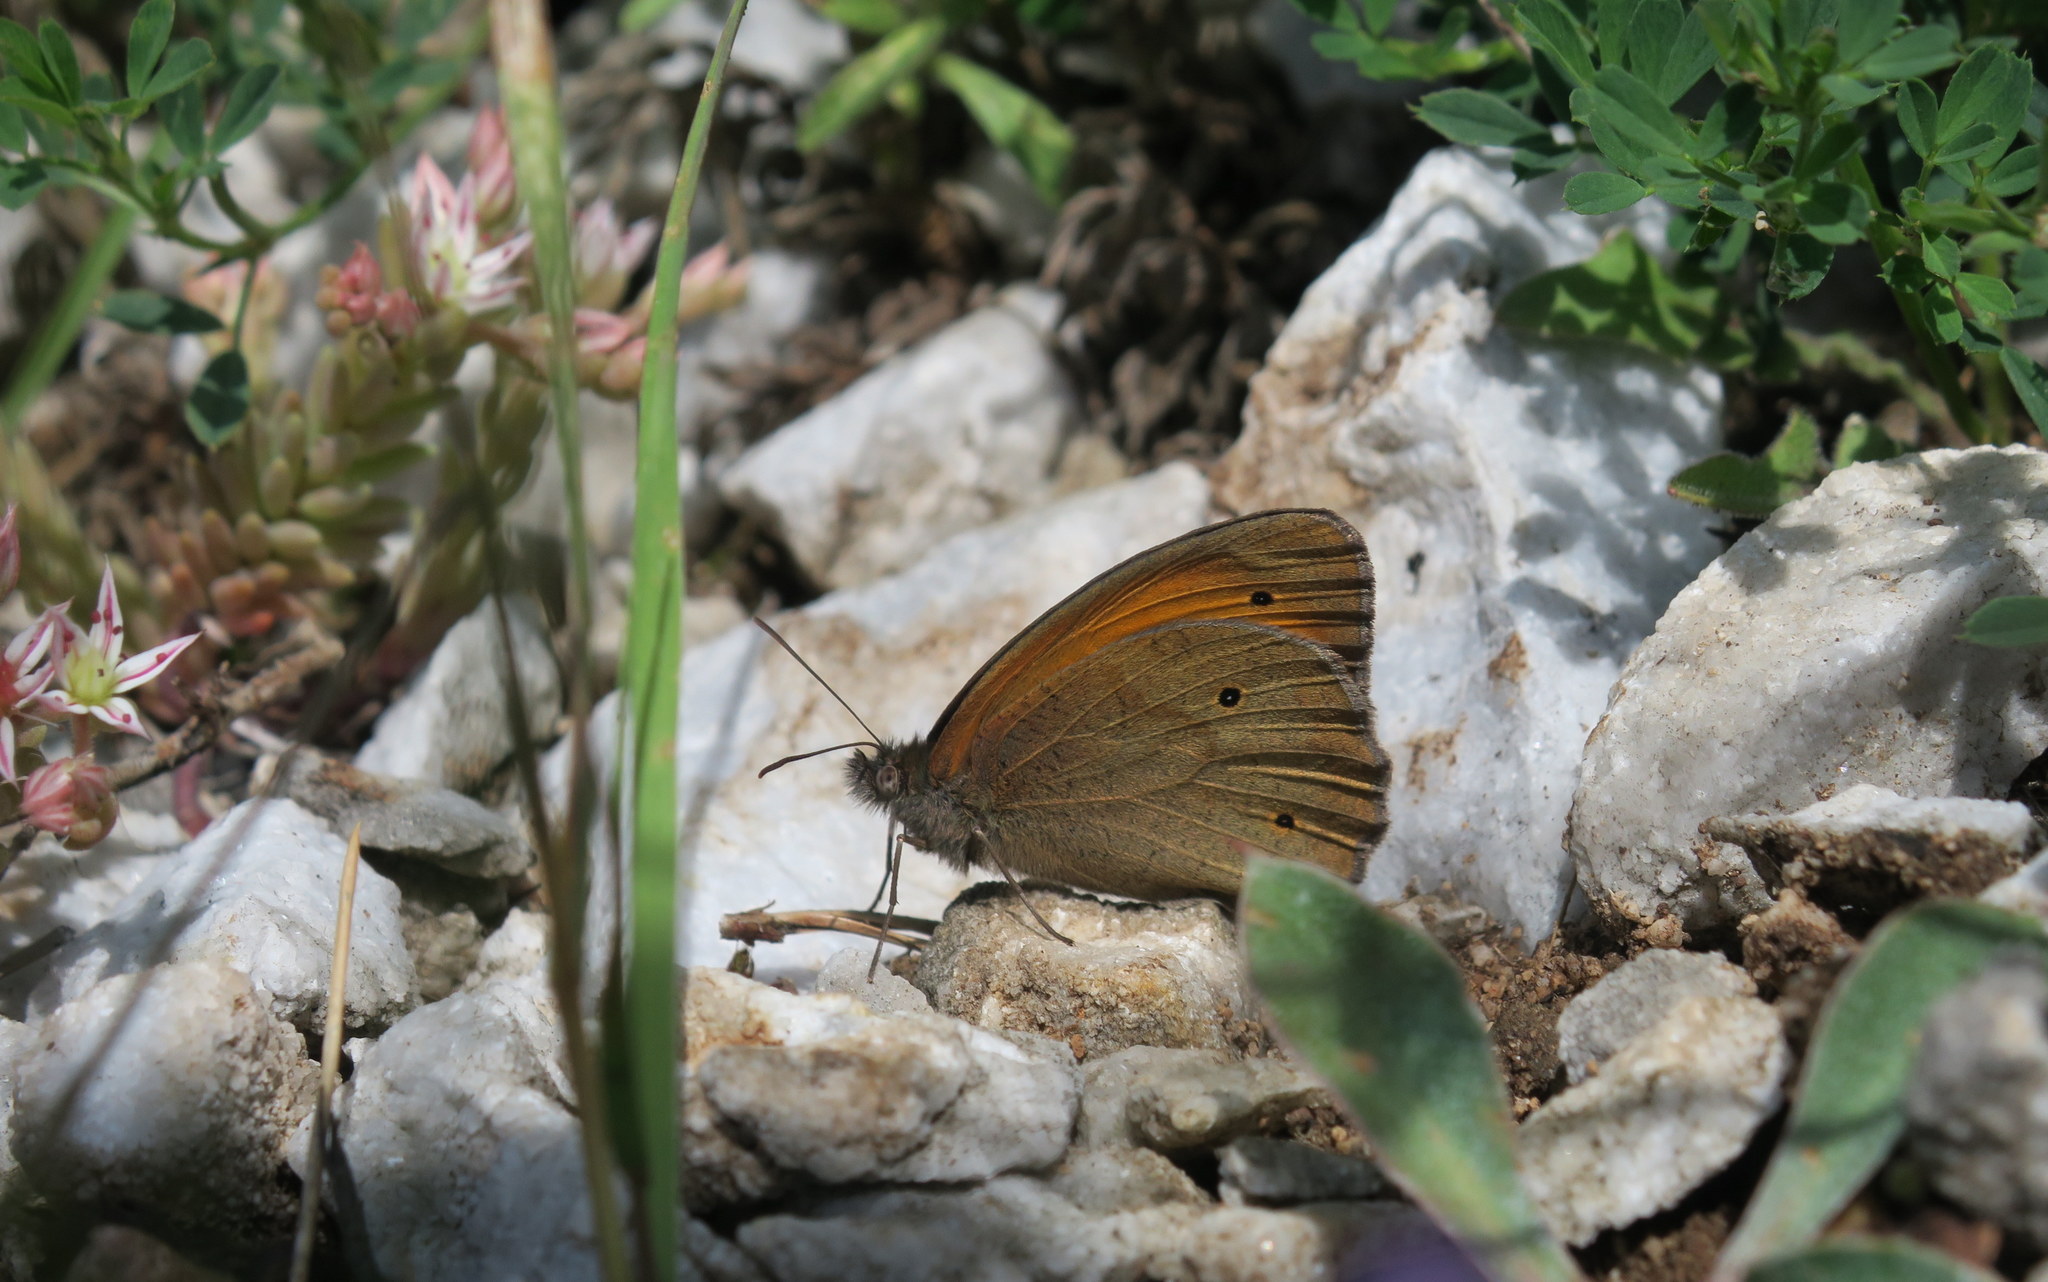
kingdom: Animalia
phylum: Arthropoda
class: Insecta
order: Lepidoptera
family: Nymphalidae
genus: Maniola
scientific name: Maniola jurtina
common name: Meadow brown
